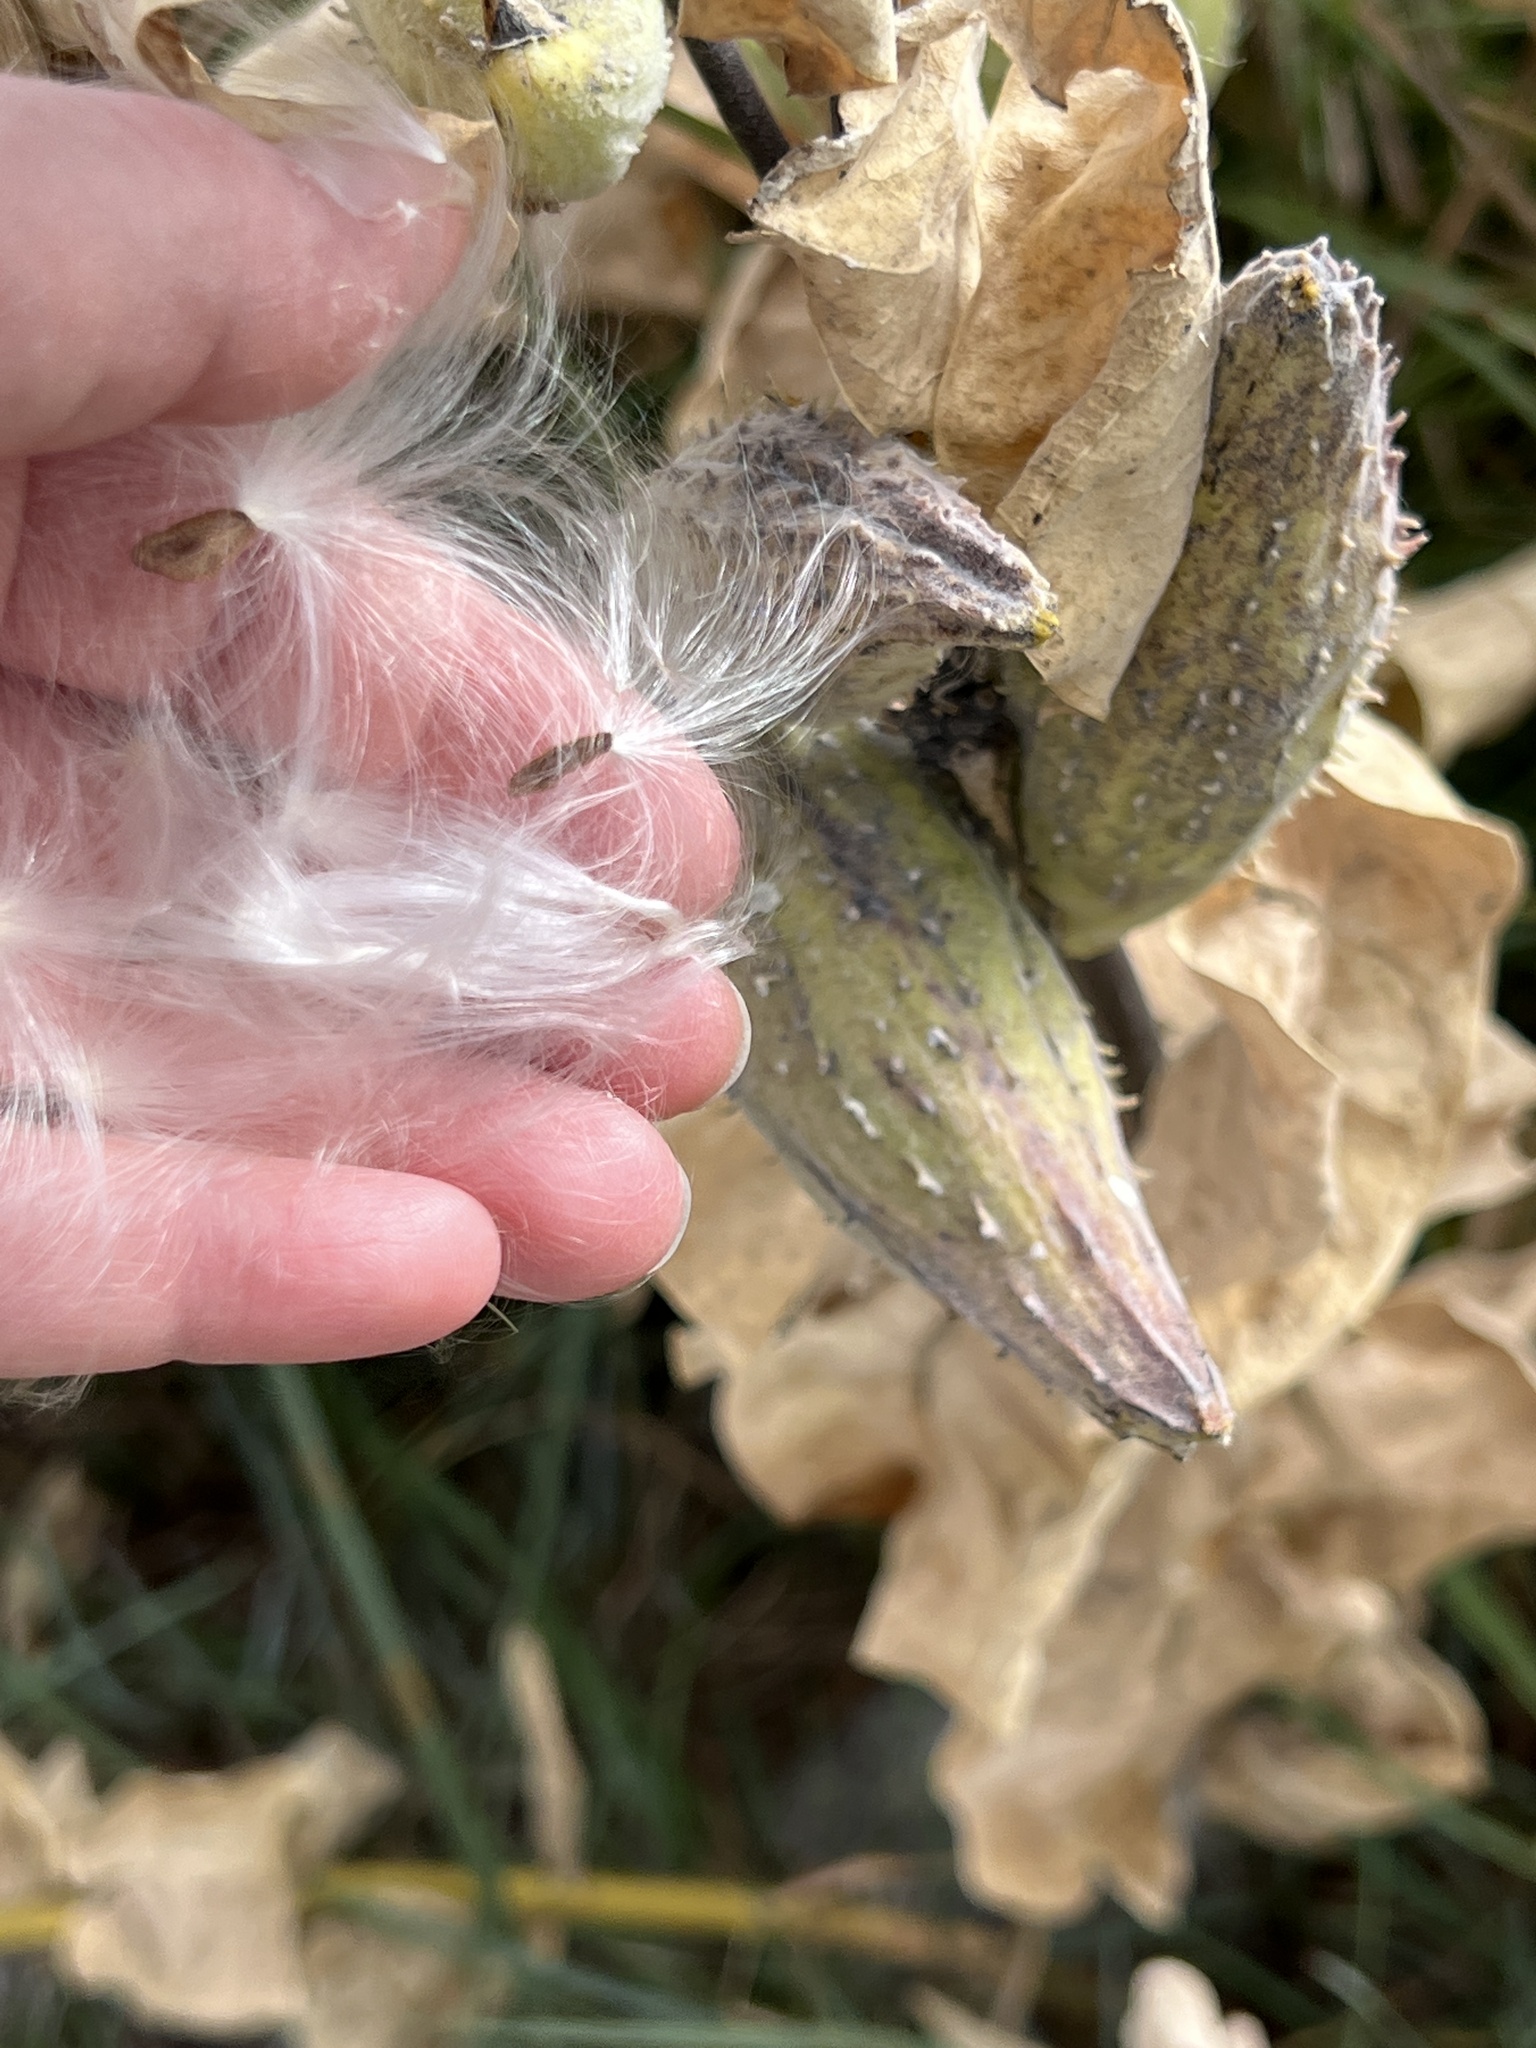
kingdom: Plantae
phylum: Tracheophyta
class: Magnoliopsida
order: Gentianales
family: Apocynaceae
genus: Asclepias
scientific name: Asclepias speciosa
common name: Showy milkweed
